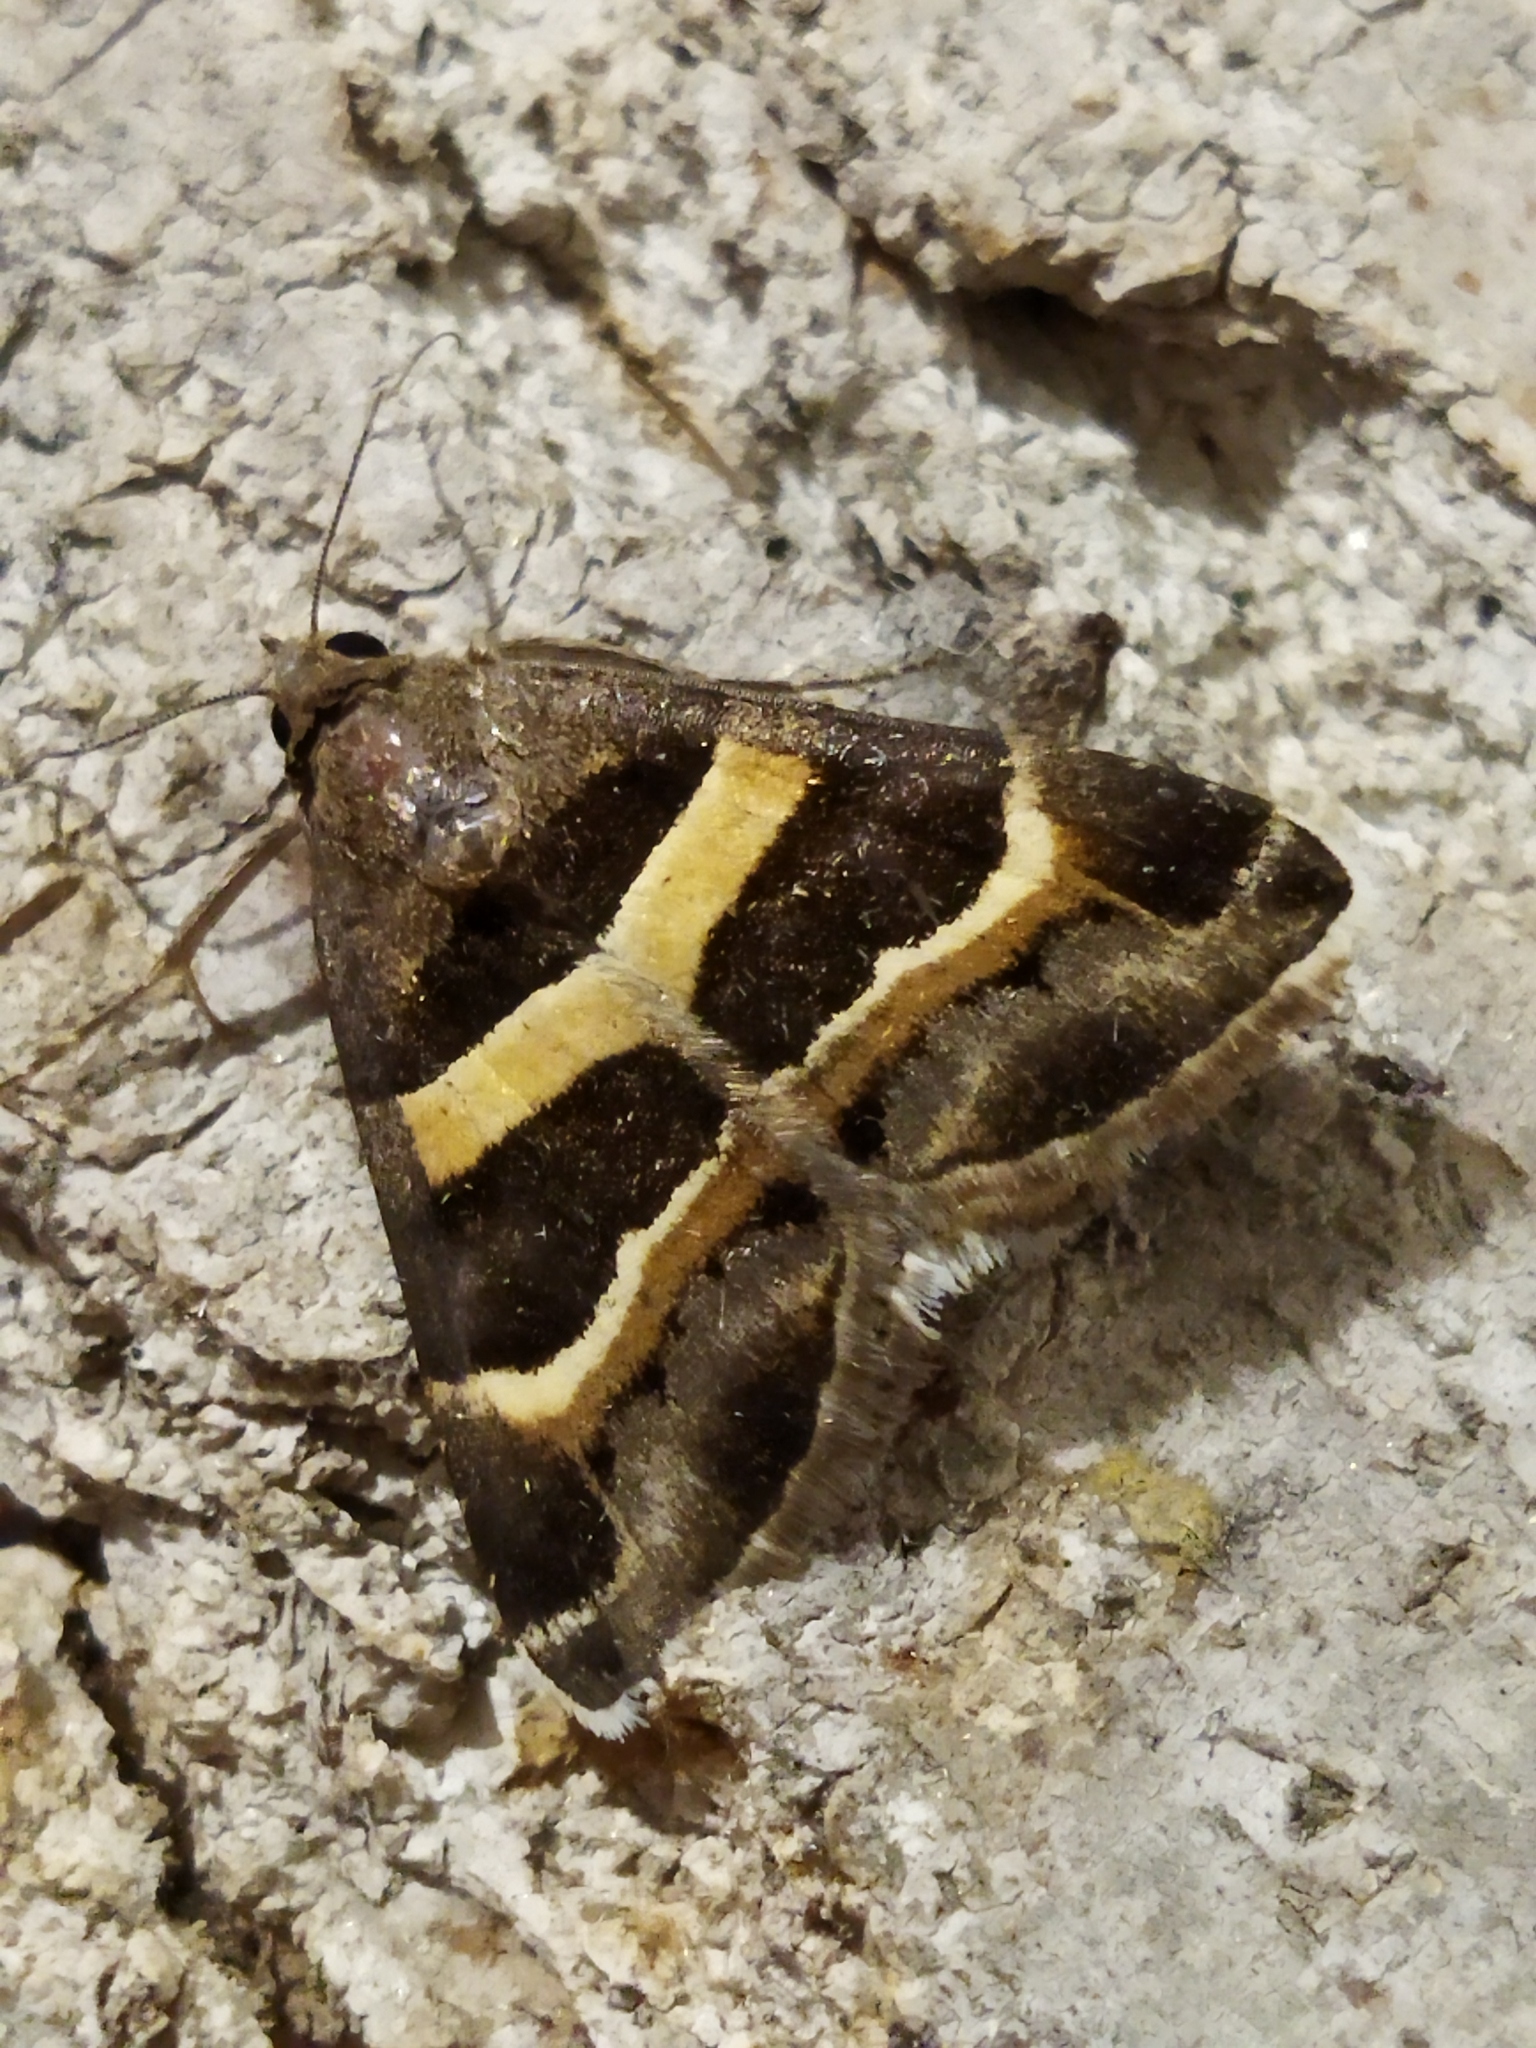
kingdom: Animalia
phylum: Arthropoda
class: Insecta
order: Lepidoptera
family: Erebidae
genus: Grammodes
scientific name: Grammodes stolida
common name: Geometrician
